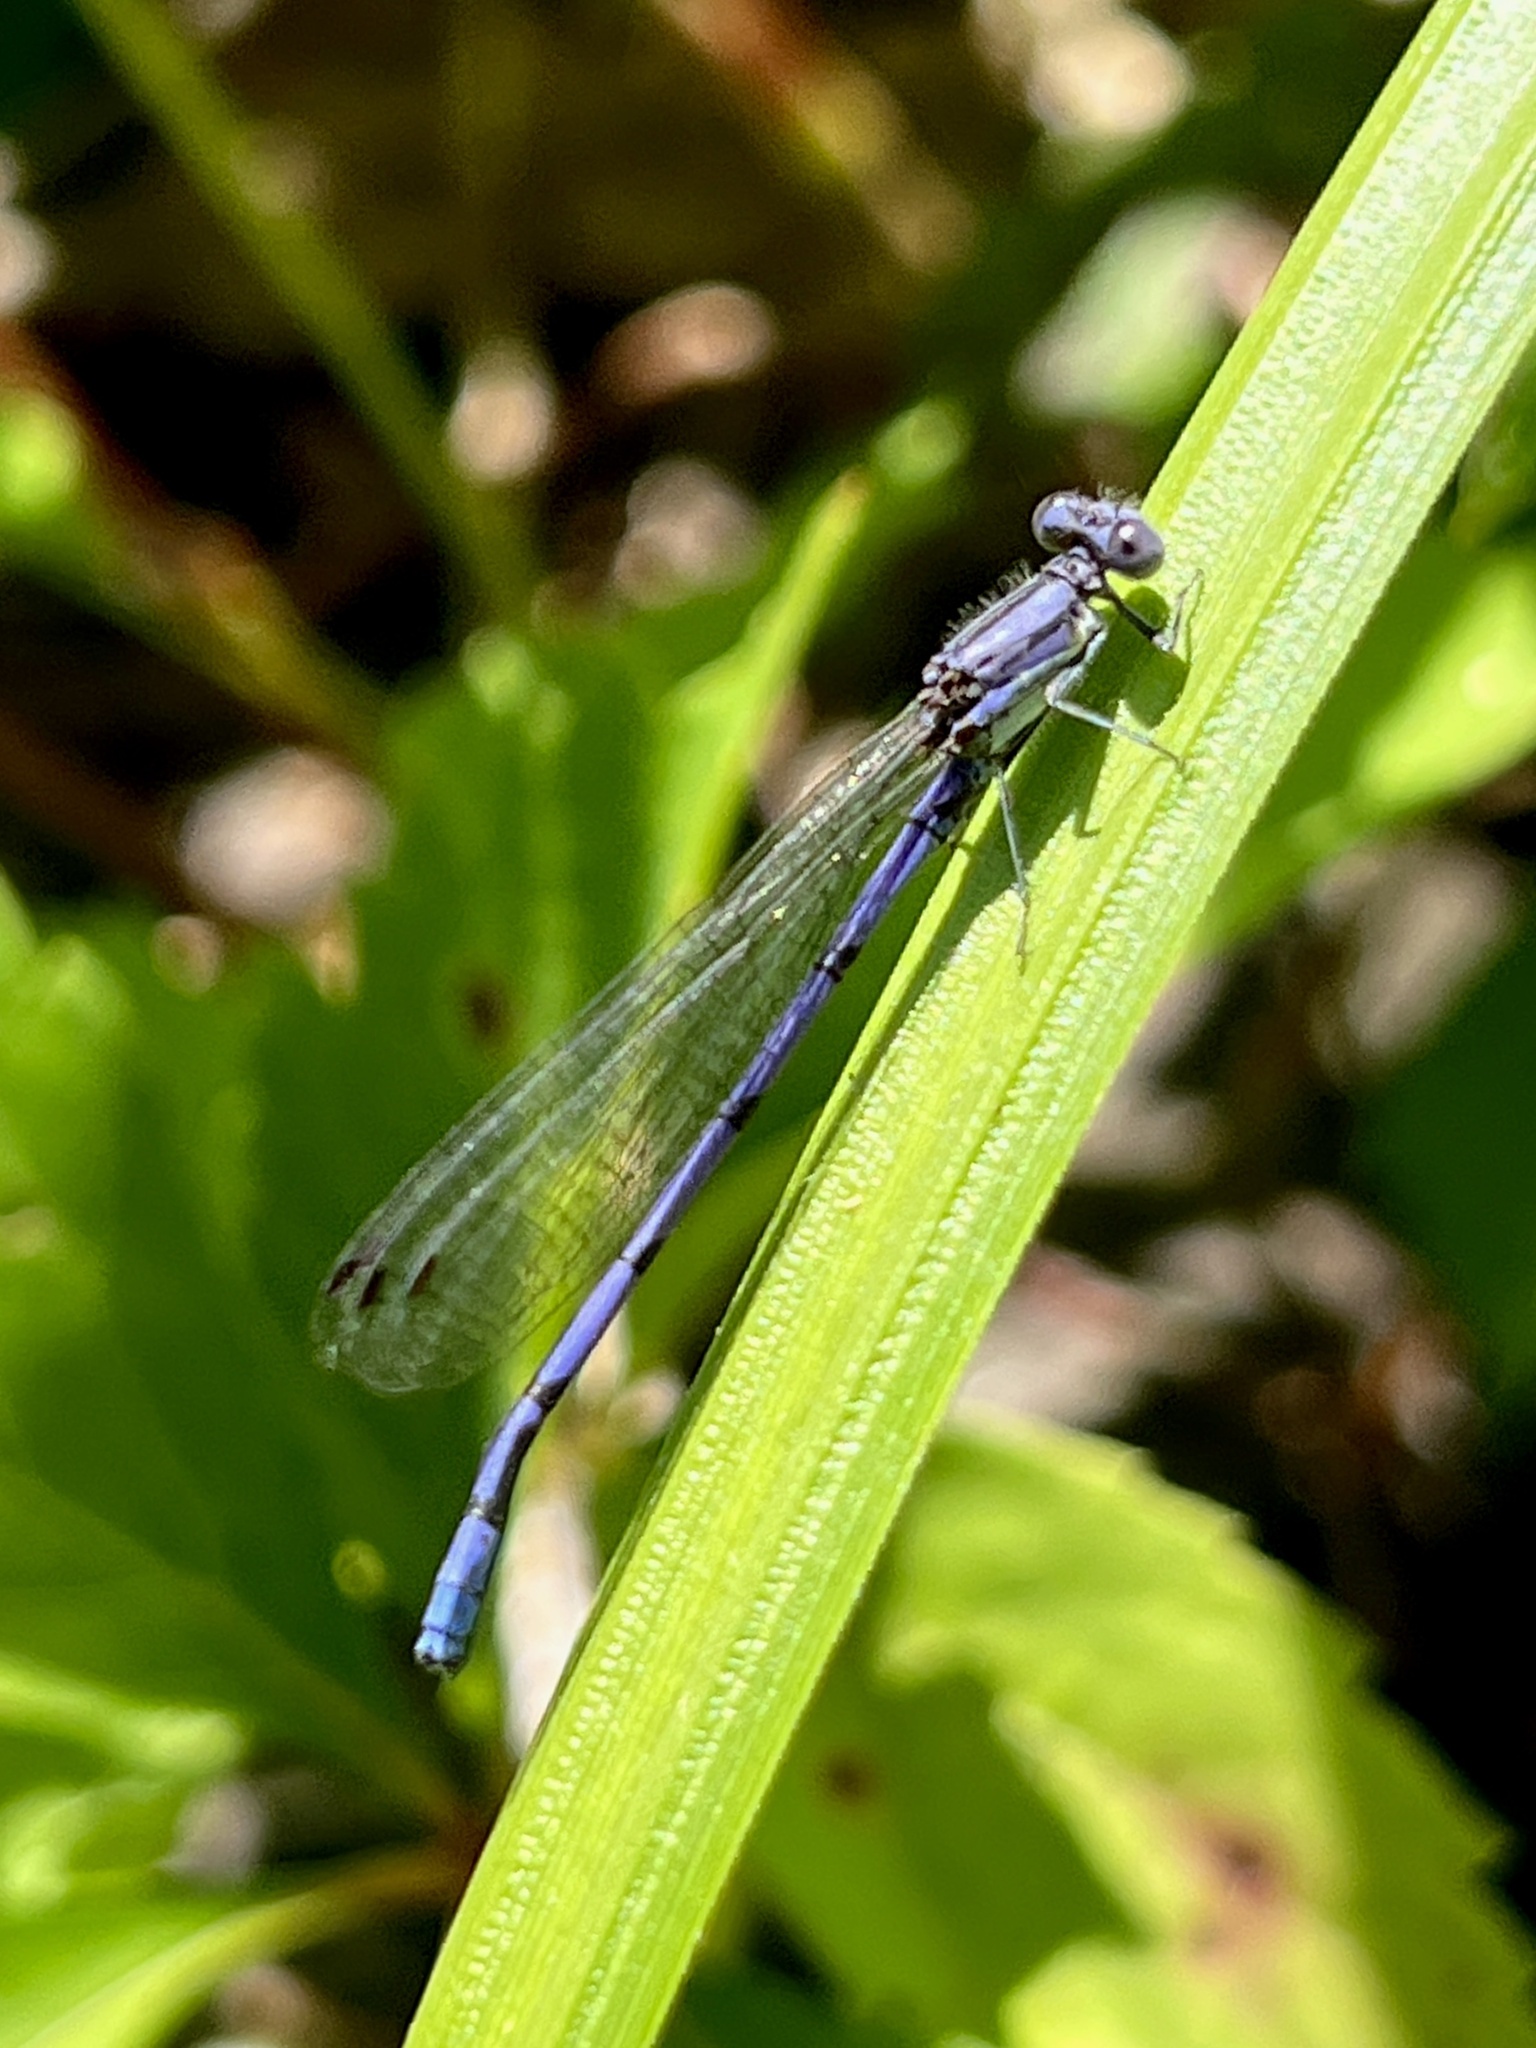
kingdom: Animalia
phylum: Arthropoda
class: Insecta
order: Odonata
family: Coenagrionidae
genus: Argia
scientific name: Argia fumipennis
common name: Variable dancer
